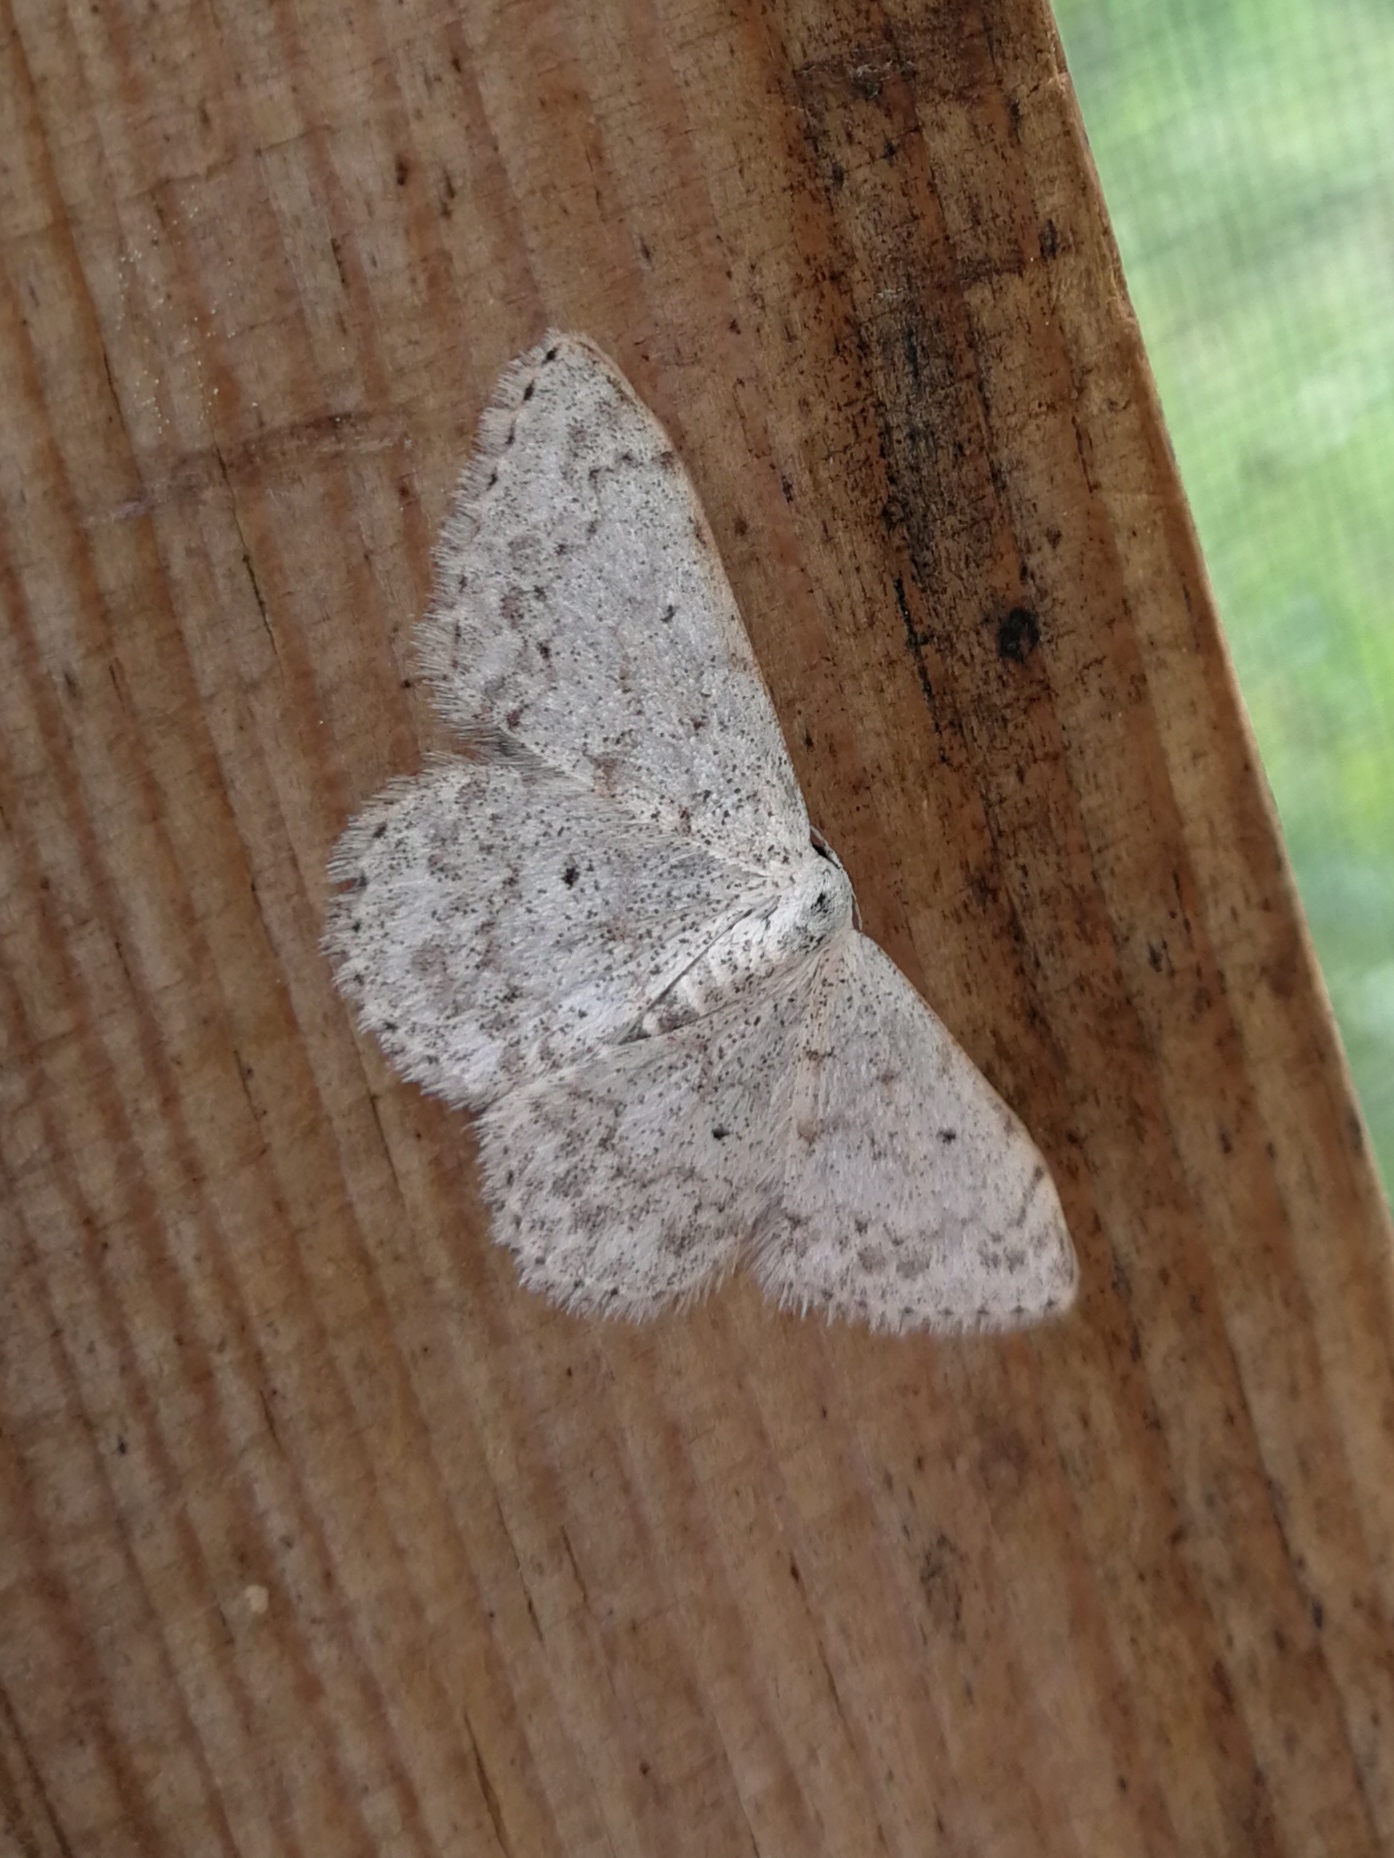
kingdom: Animalia
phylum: Arthropoda
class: Insecta
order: Lepidoptera
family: Geometridae
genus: Scopula
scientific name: Scopula marginepunctata
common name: Mullein wave
